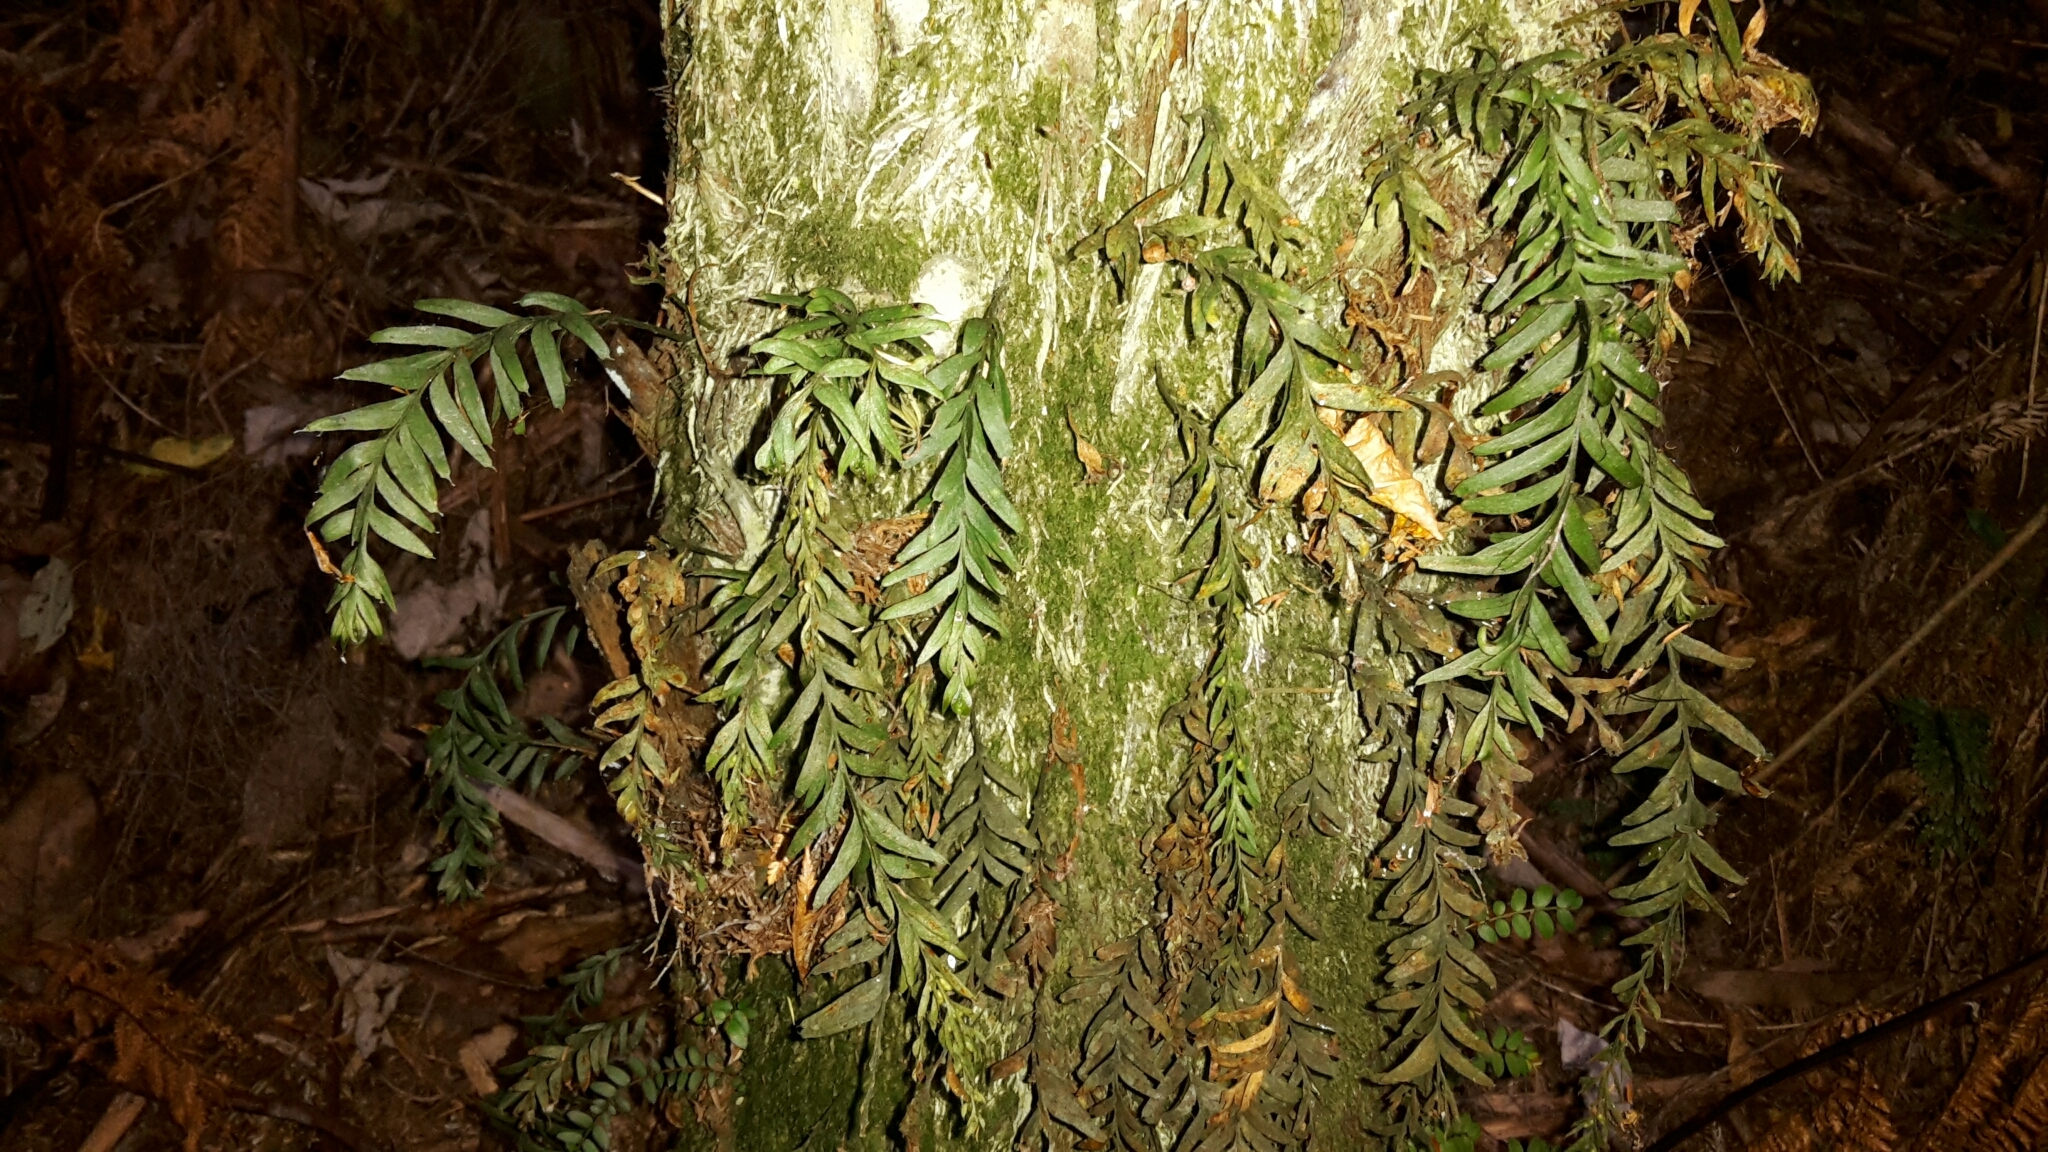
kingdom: Plantae
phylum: Tracheophyta
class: Polypodiopsida
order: Psilotales
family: Psilotaceae
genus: Tmesipteris
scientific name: Tmesipteris elongata
